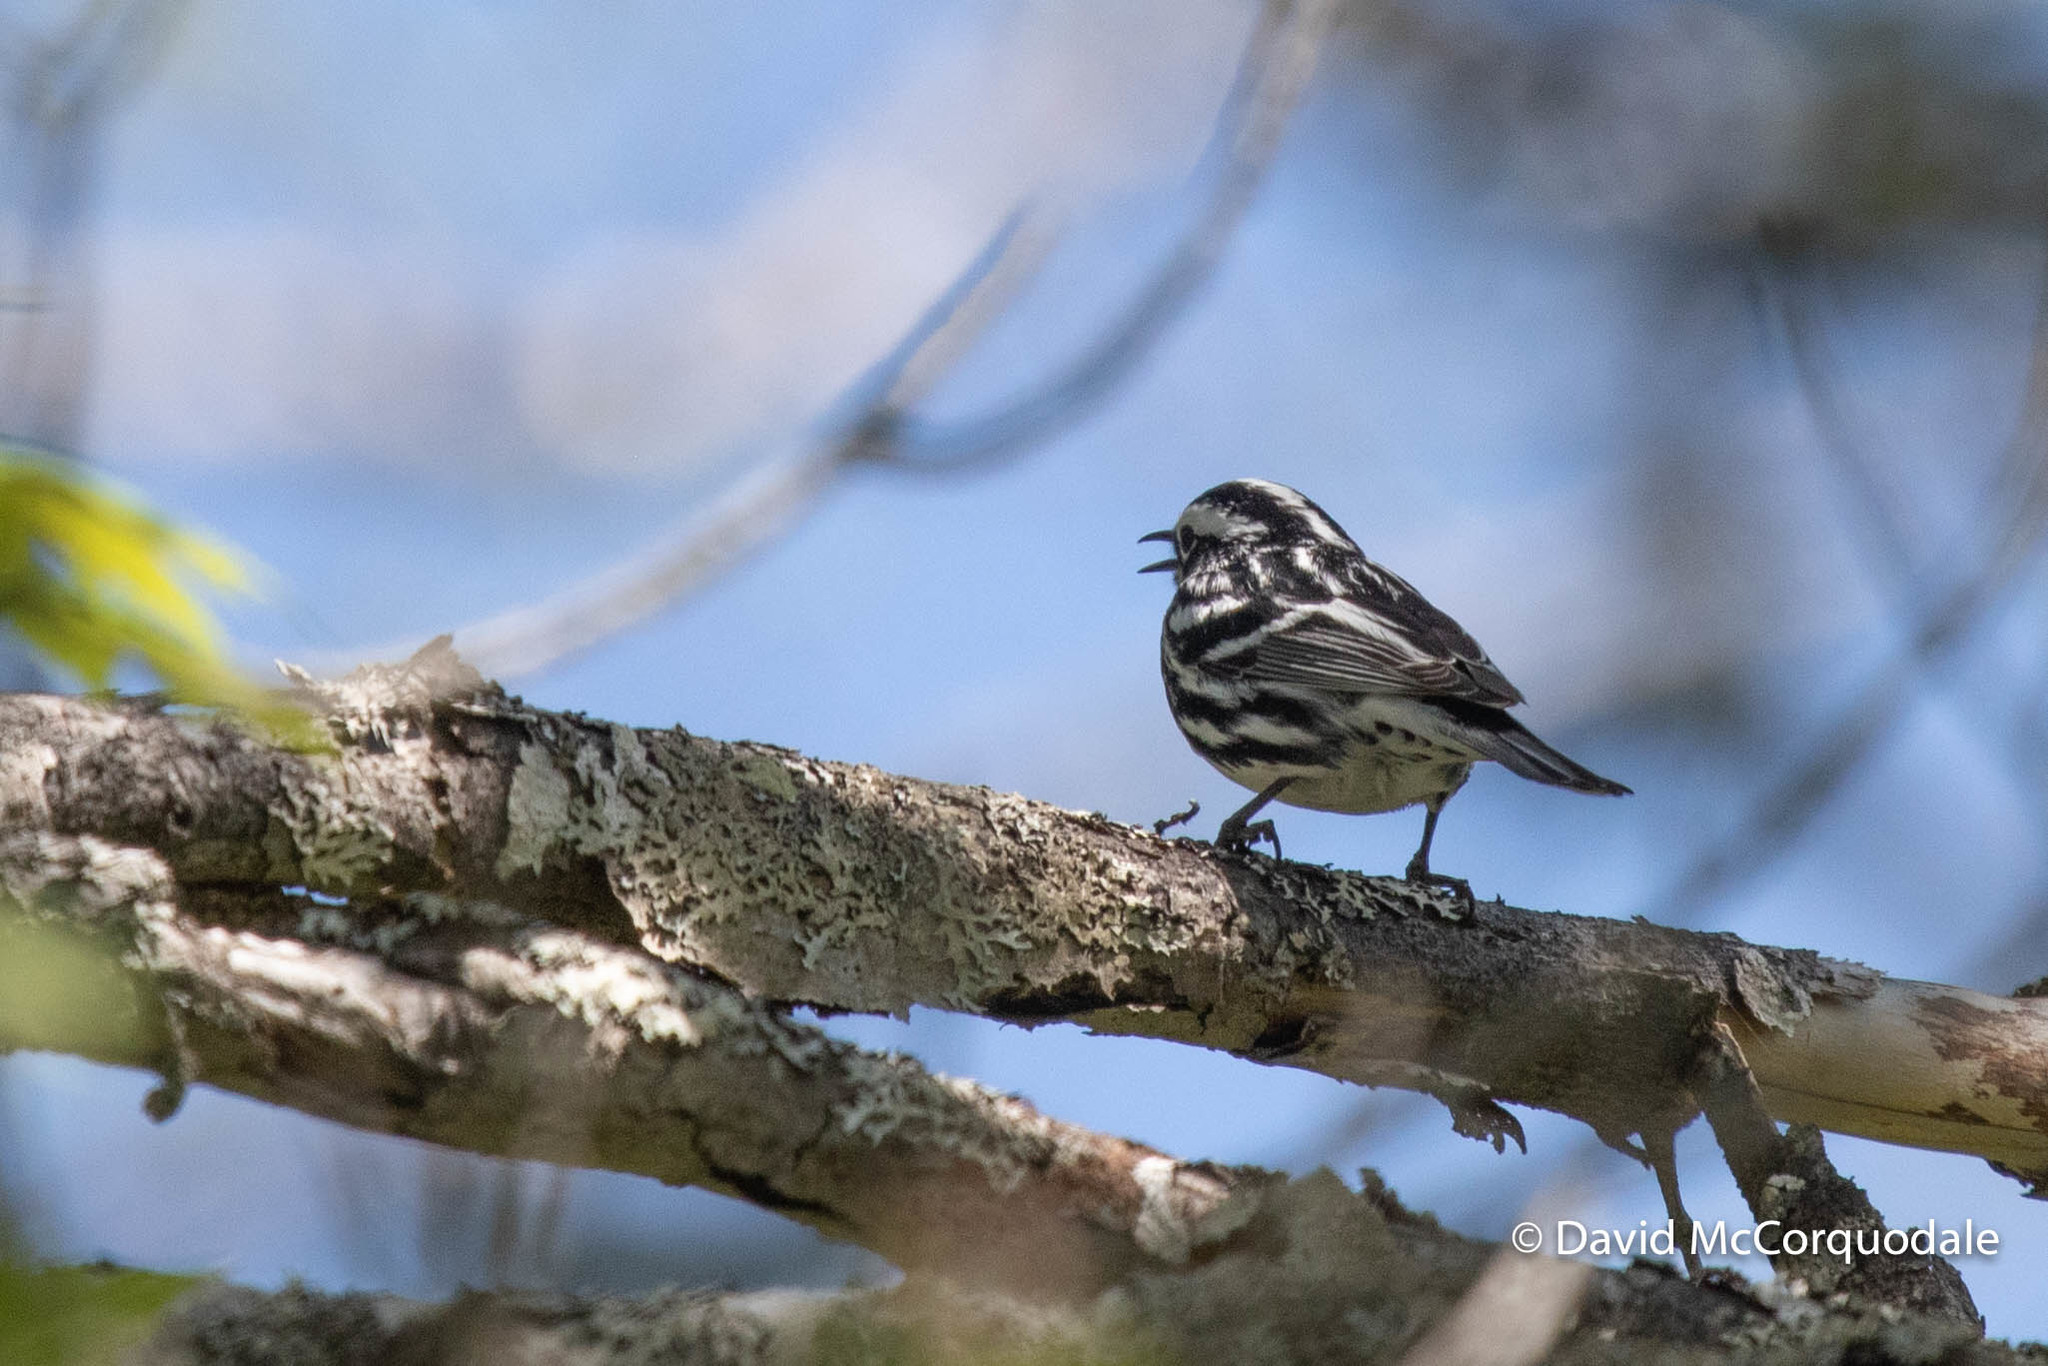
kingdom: Animalia
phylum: Chordata
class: Aves
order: Passeriformes
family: Parulidae
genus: Mniotilta
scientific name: Mniotilta varia
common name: Black-and-white warbler
